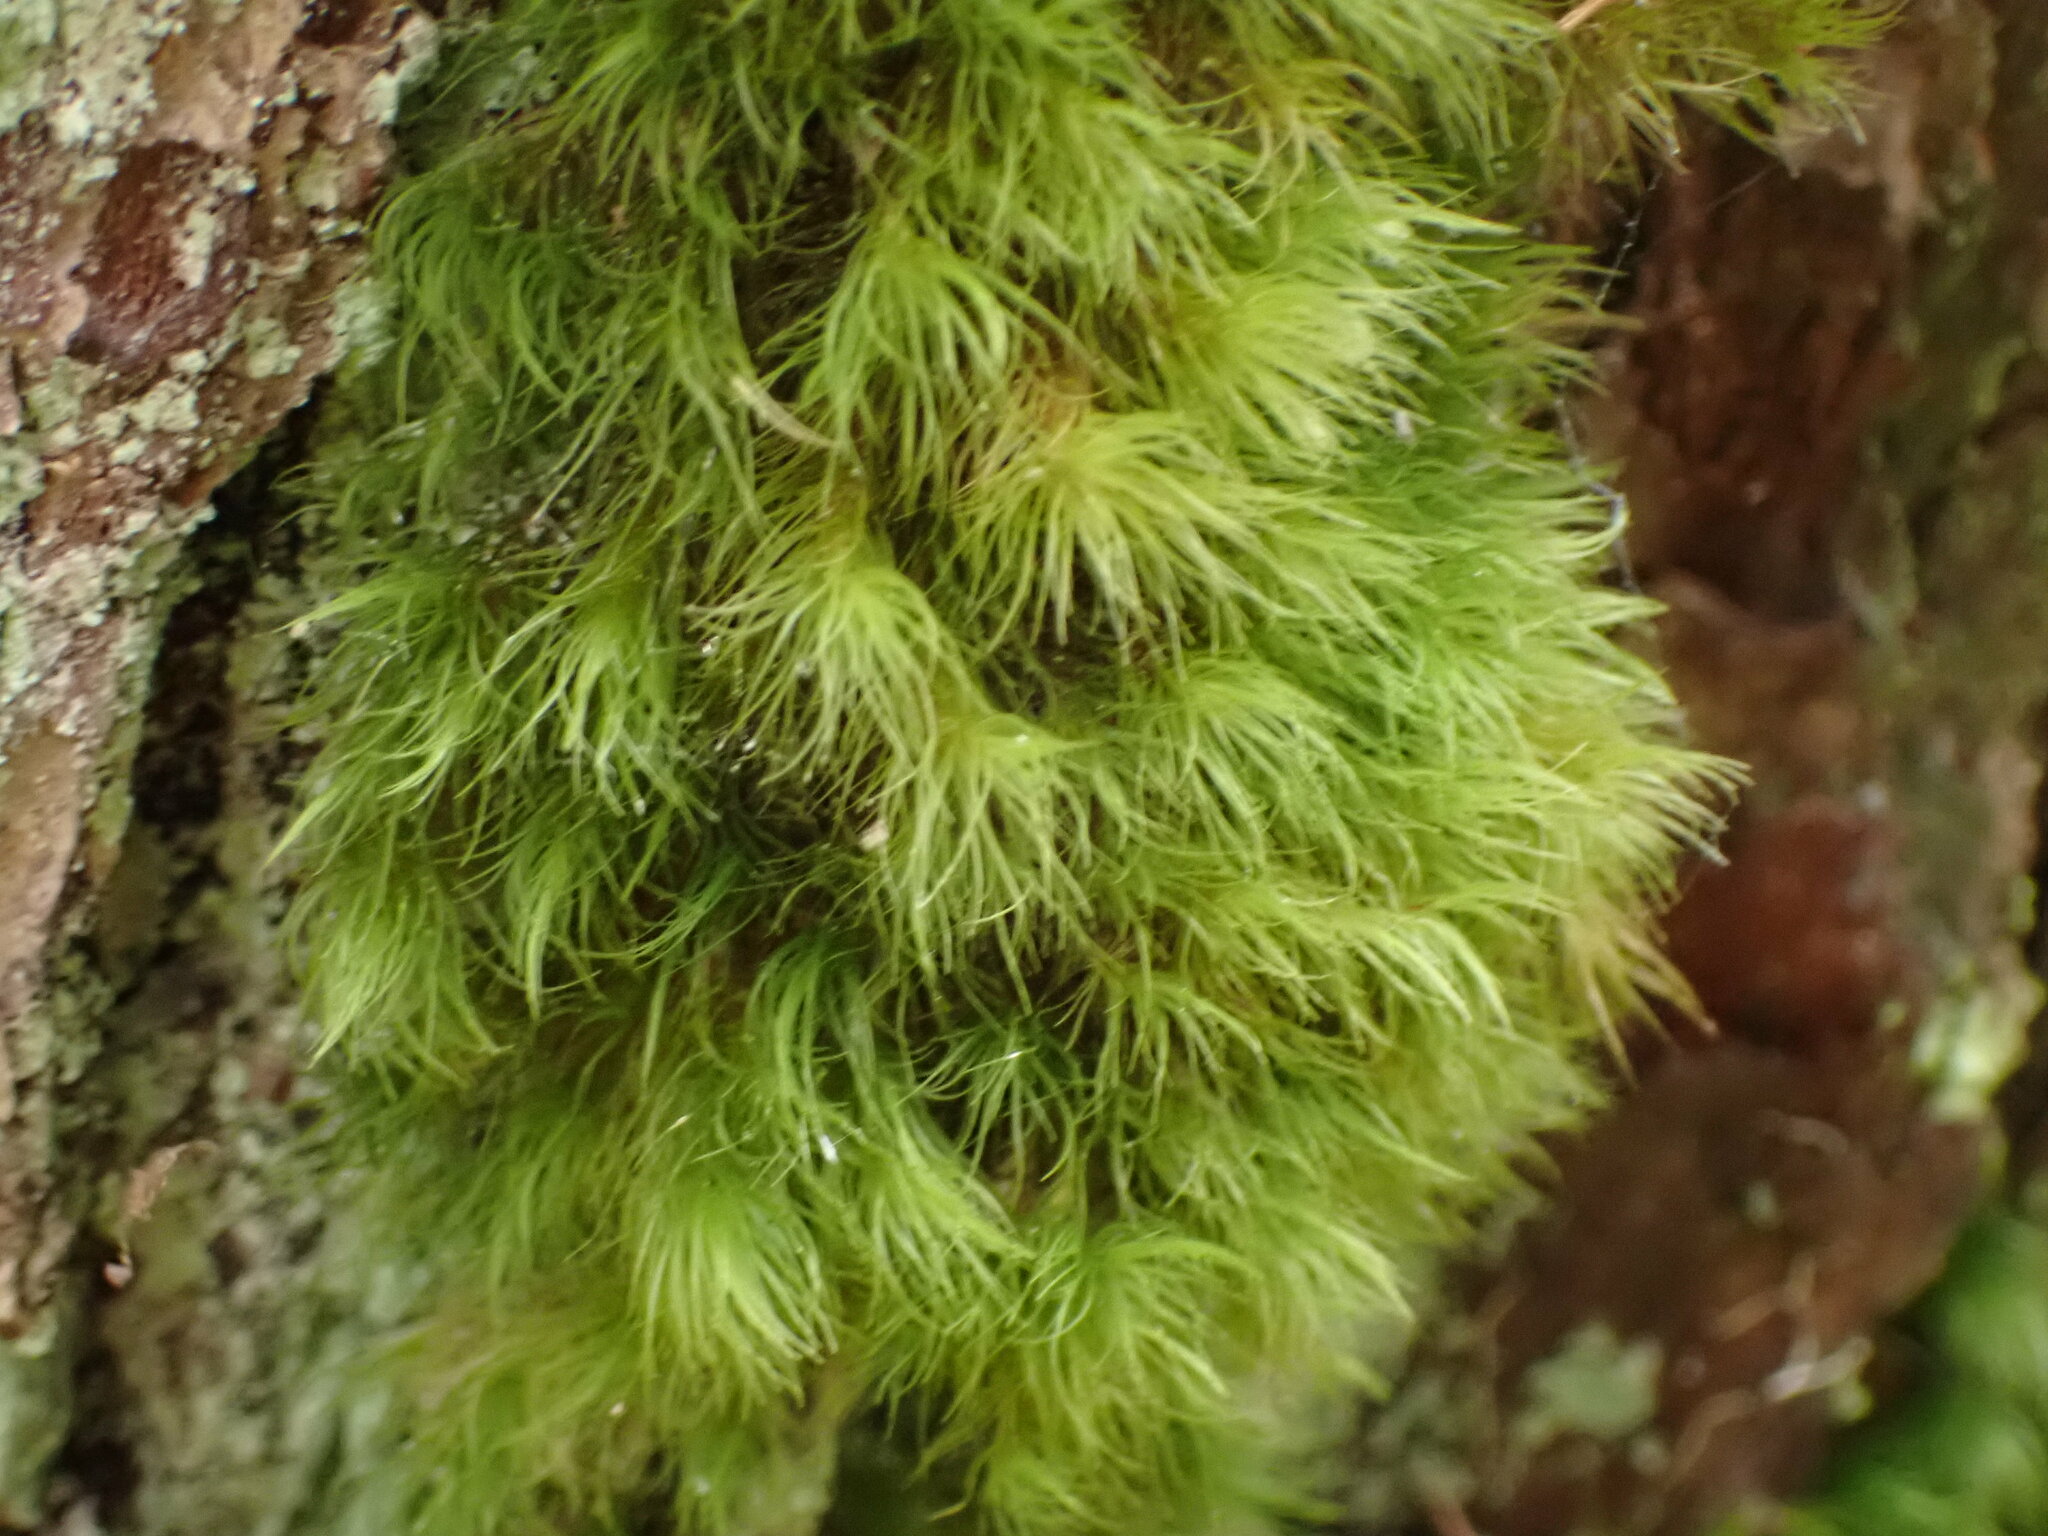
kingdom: Plantae
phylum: Bryophyta
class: Bryopsida
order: Dicranales
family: Dicranaceae
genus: Dicranum
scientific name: Dicranum fuscescens
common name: Curly heron's-bill moss
